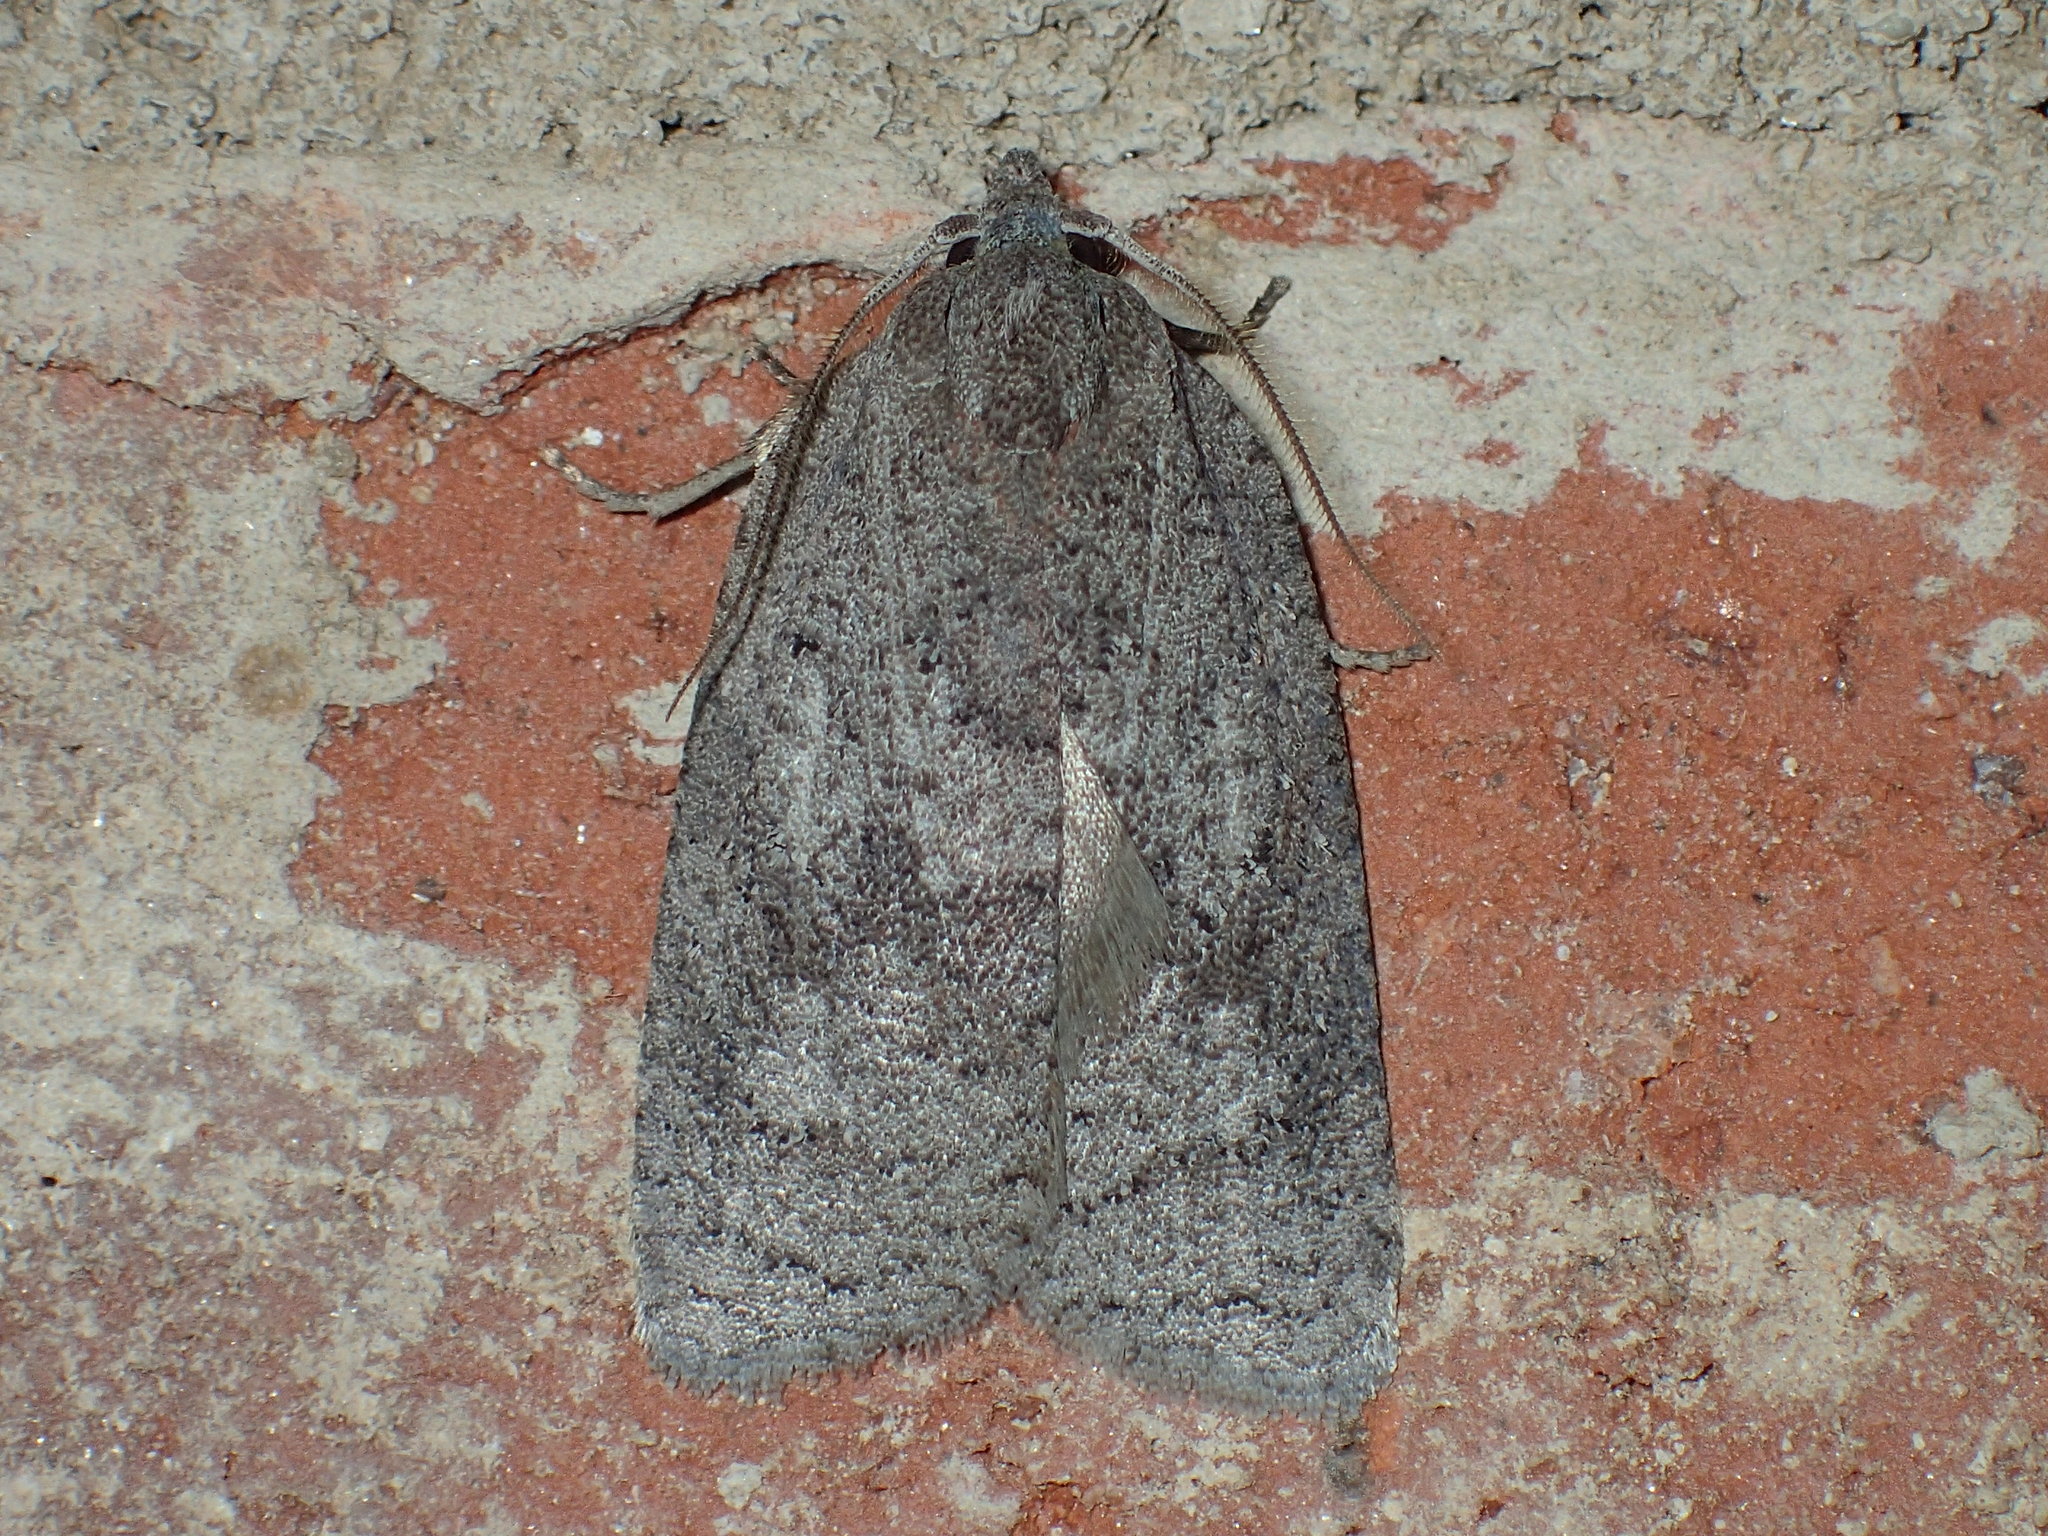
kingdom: Animalia
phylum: Arthropoda
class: Insecta
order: Lepidoptera
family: Tortricidae
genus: Amorbia
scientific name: Amorbia humerosana
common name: White-lined leafroller moth
